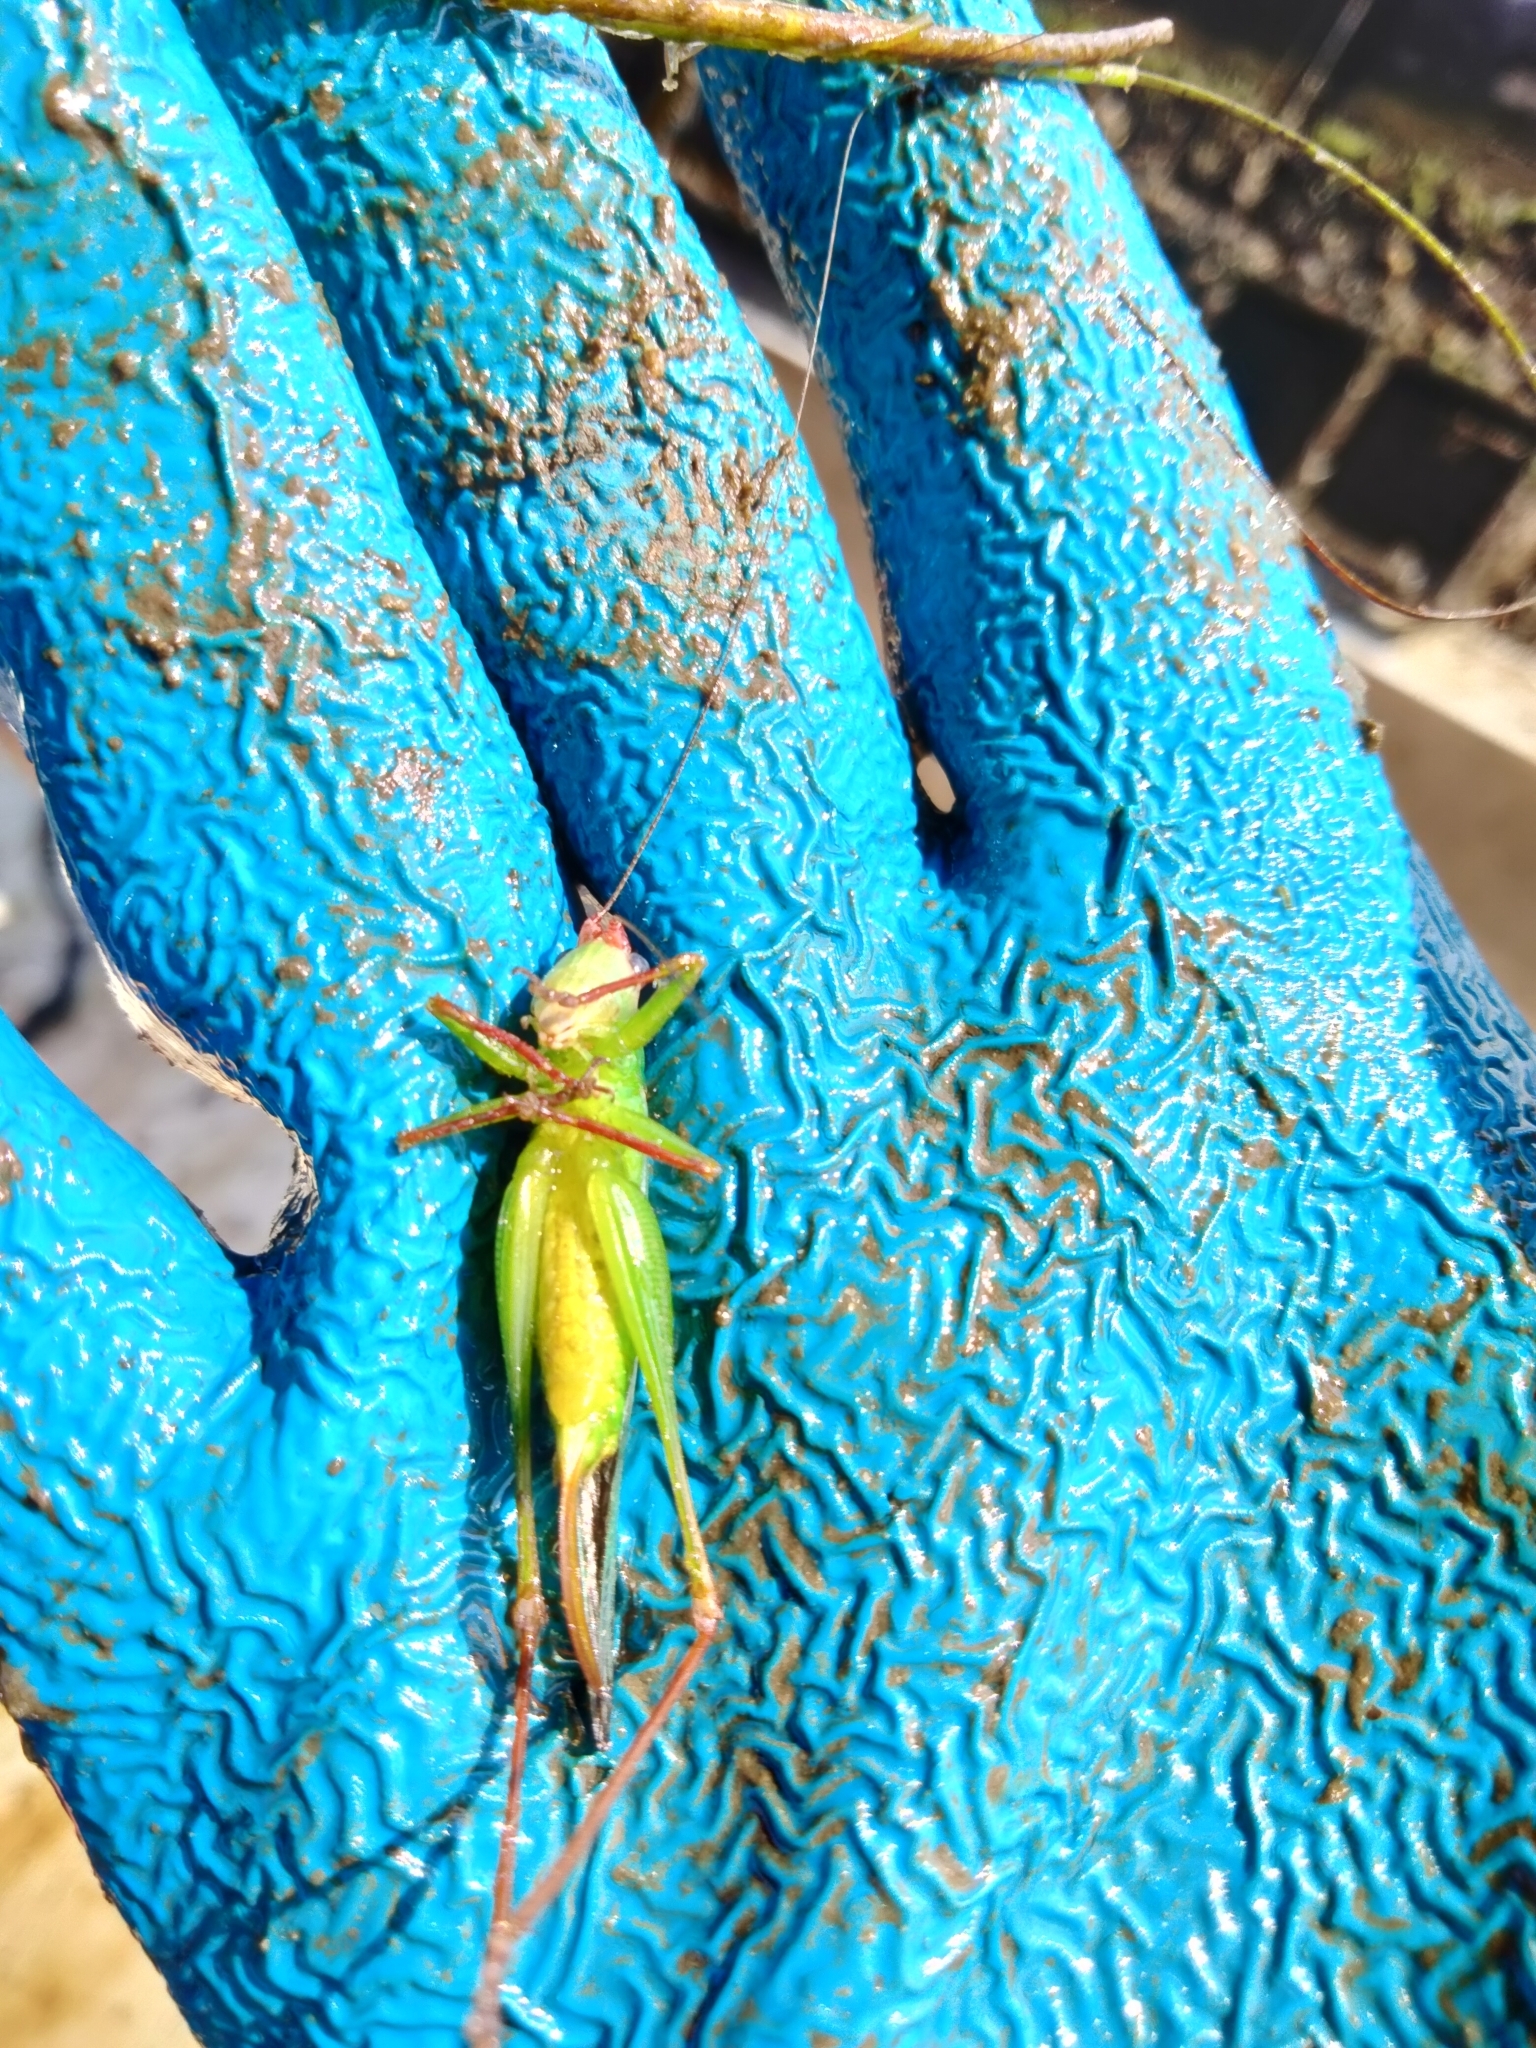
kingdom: Animalia
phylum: Arthropoda
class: Insecta
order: Orthoptera
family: Tettigoniidae
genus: Orchelimum
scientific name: Orchelimum pulchellum
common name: Handsome meadow katydid
